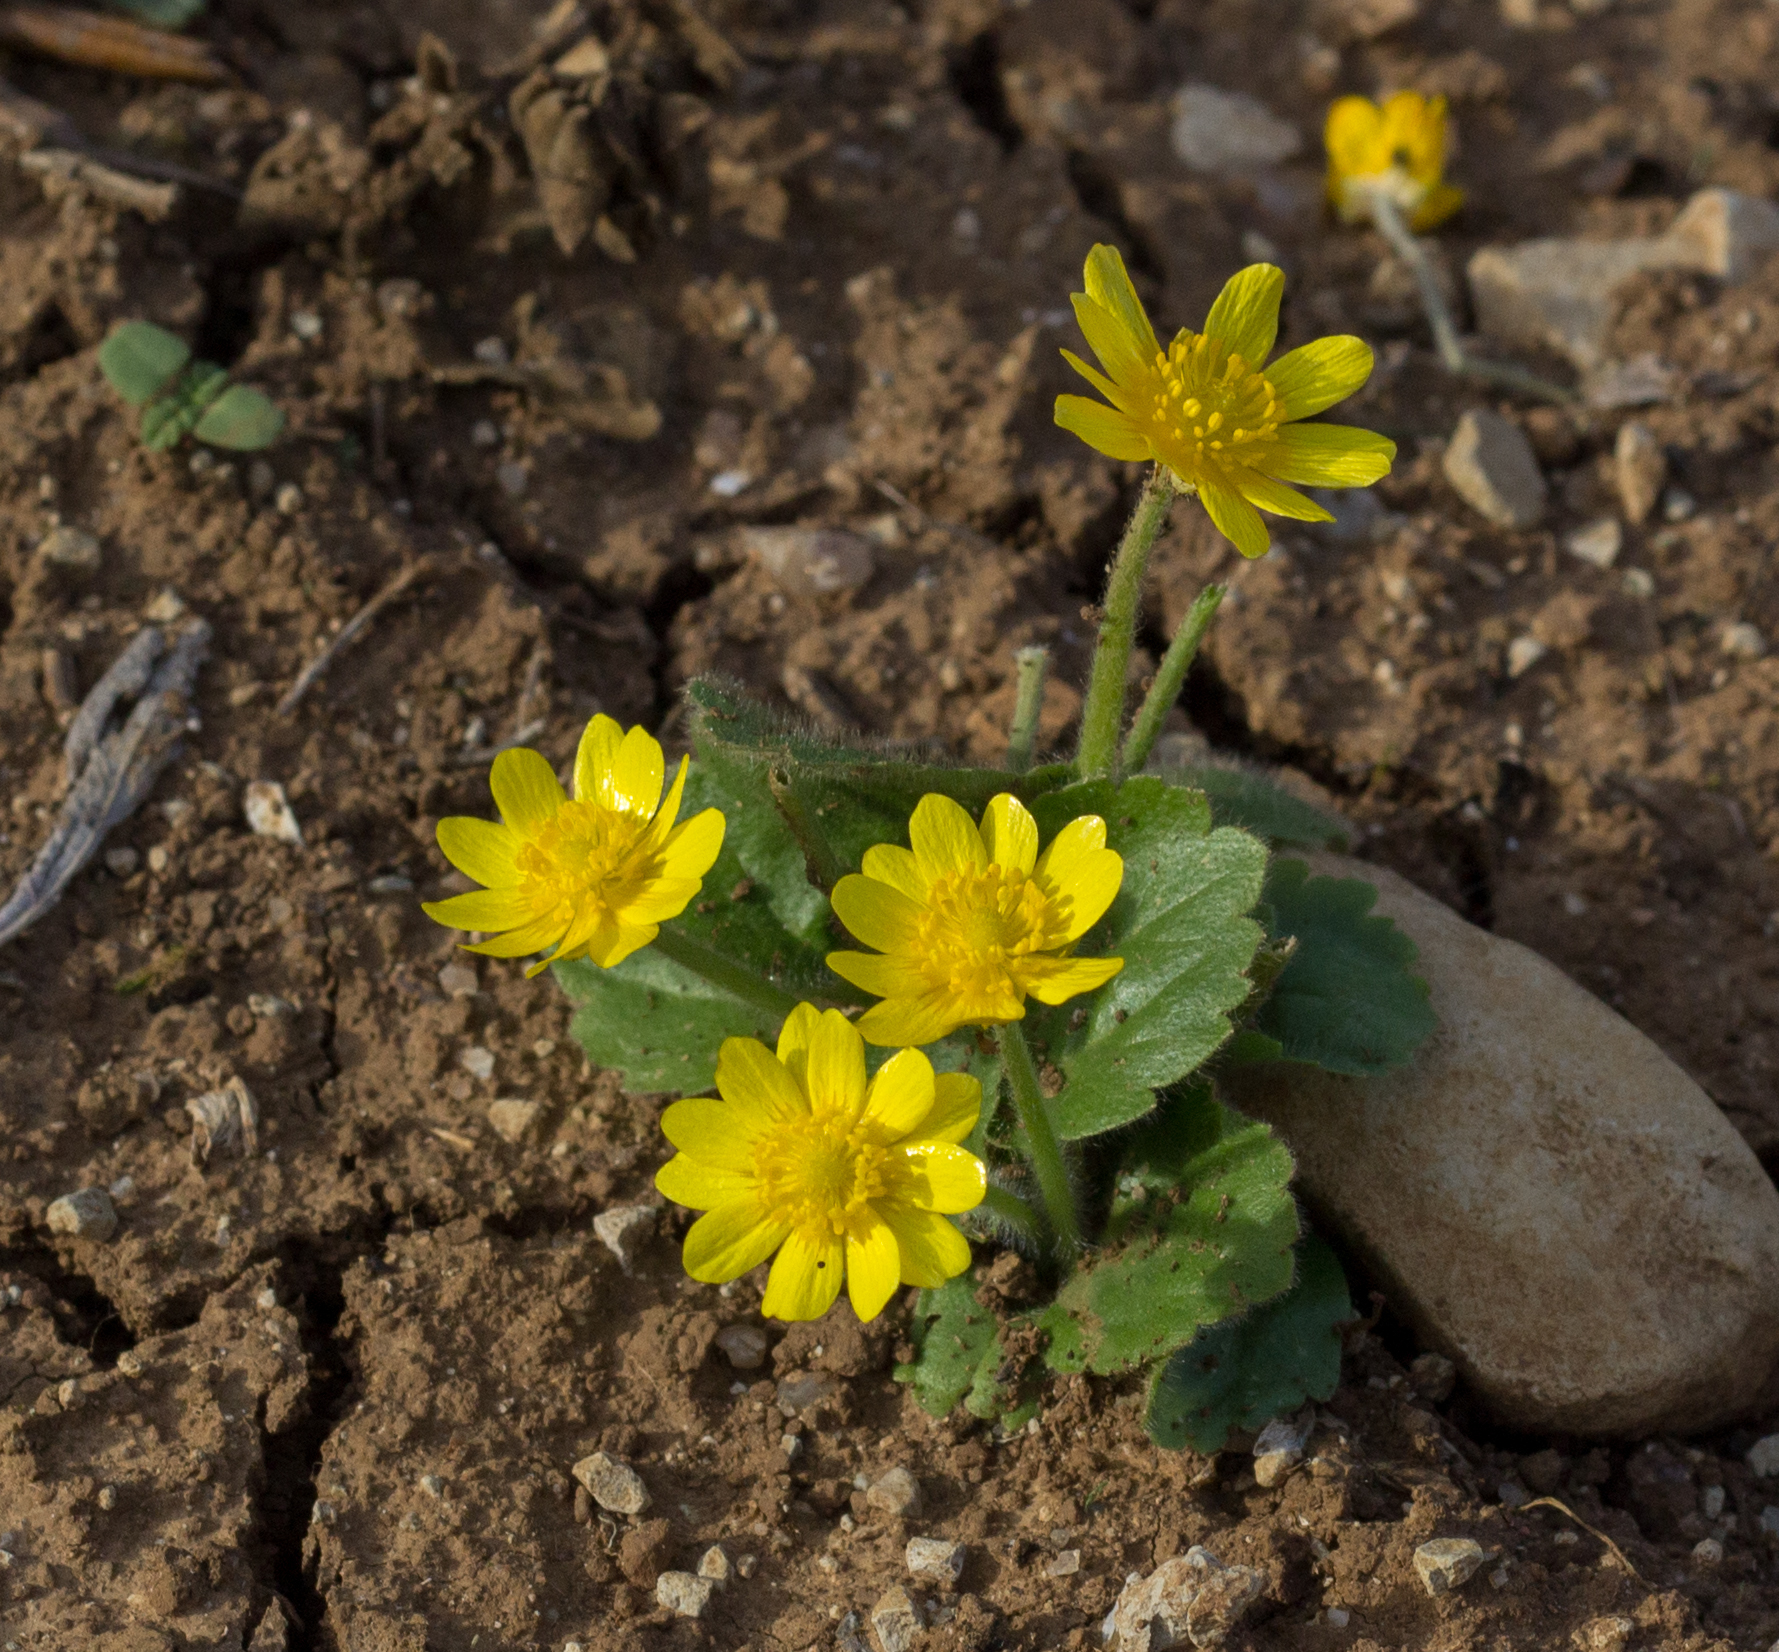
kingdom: Plantae
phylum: Tracheophyta
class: Magnoliopsida
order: Ranunculales
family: Ranunculaceae
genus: Ranunculus
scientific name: Ranunculus bullatus
